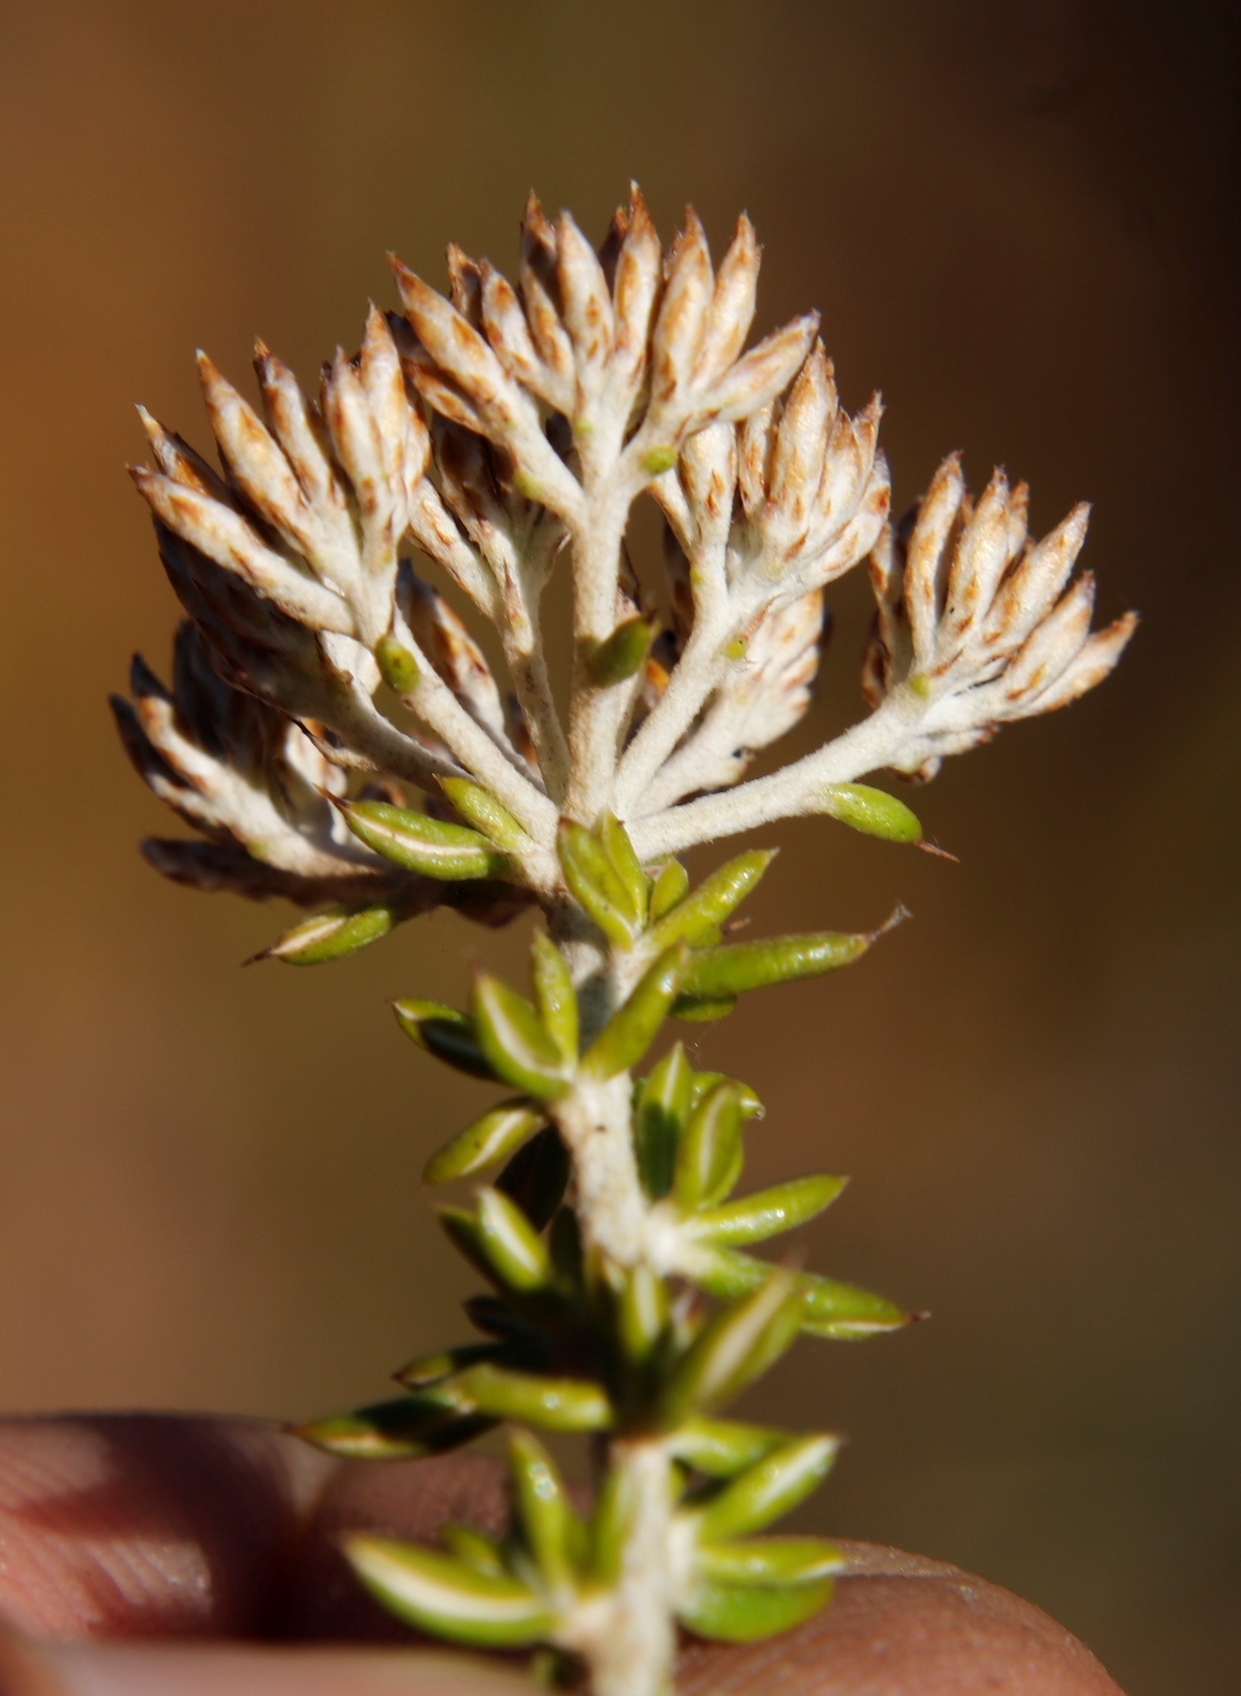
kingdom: Plantae
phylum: Tracheophyta
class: Magnoliopsida
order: Asterales
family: Asteraceae
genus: Metalasia
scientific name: Metalasia densa
